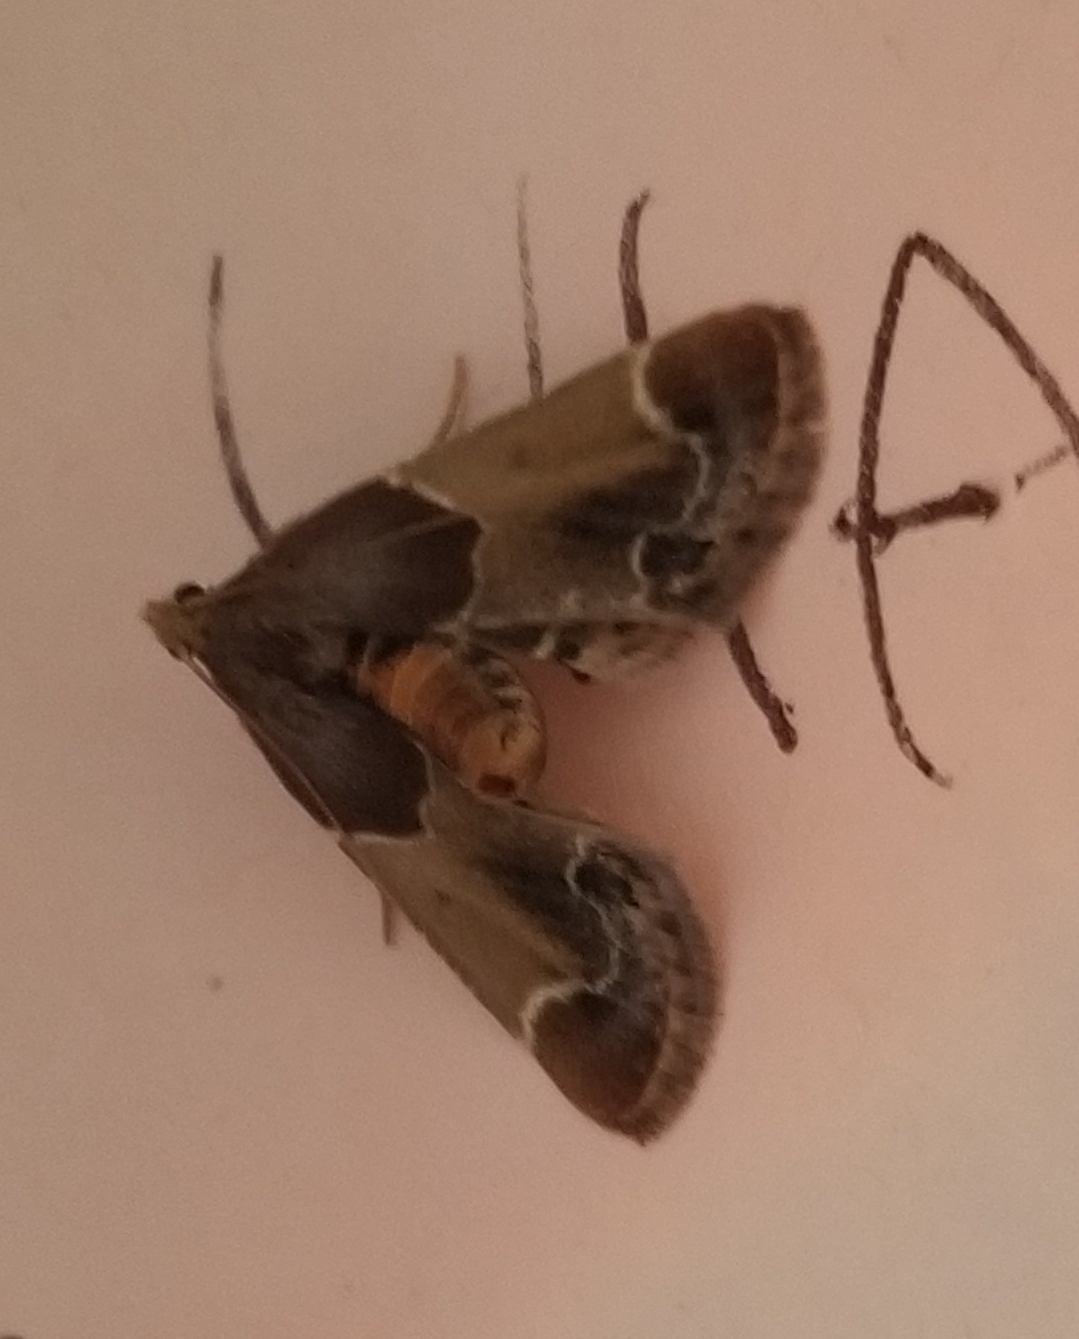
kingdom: Animalia
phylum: Arthropoda
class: Insecta
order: Lepidoptera
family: Pyralidae
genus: Pyralis
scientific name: Pyralis farinalis
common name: Meal moth
